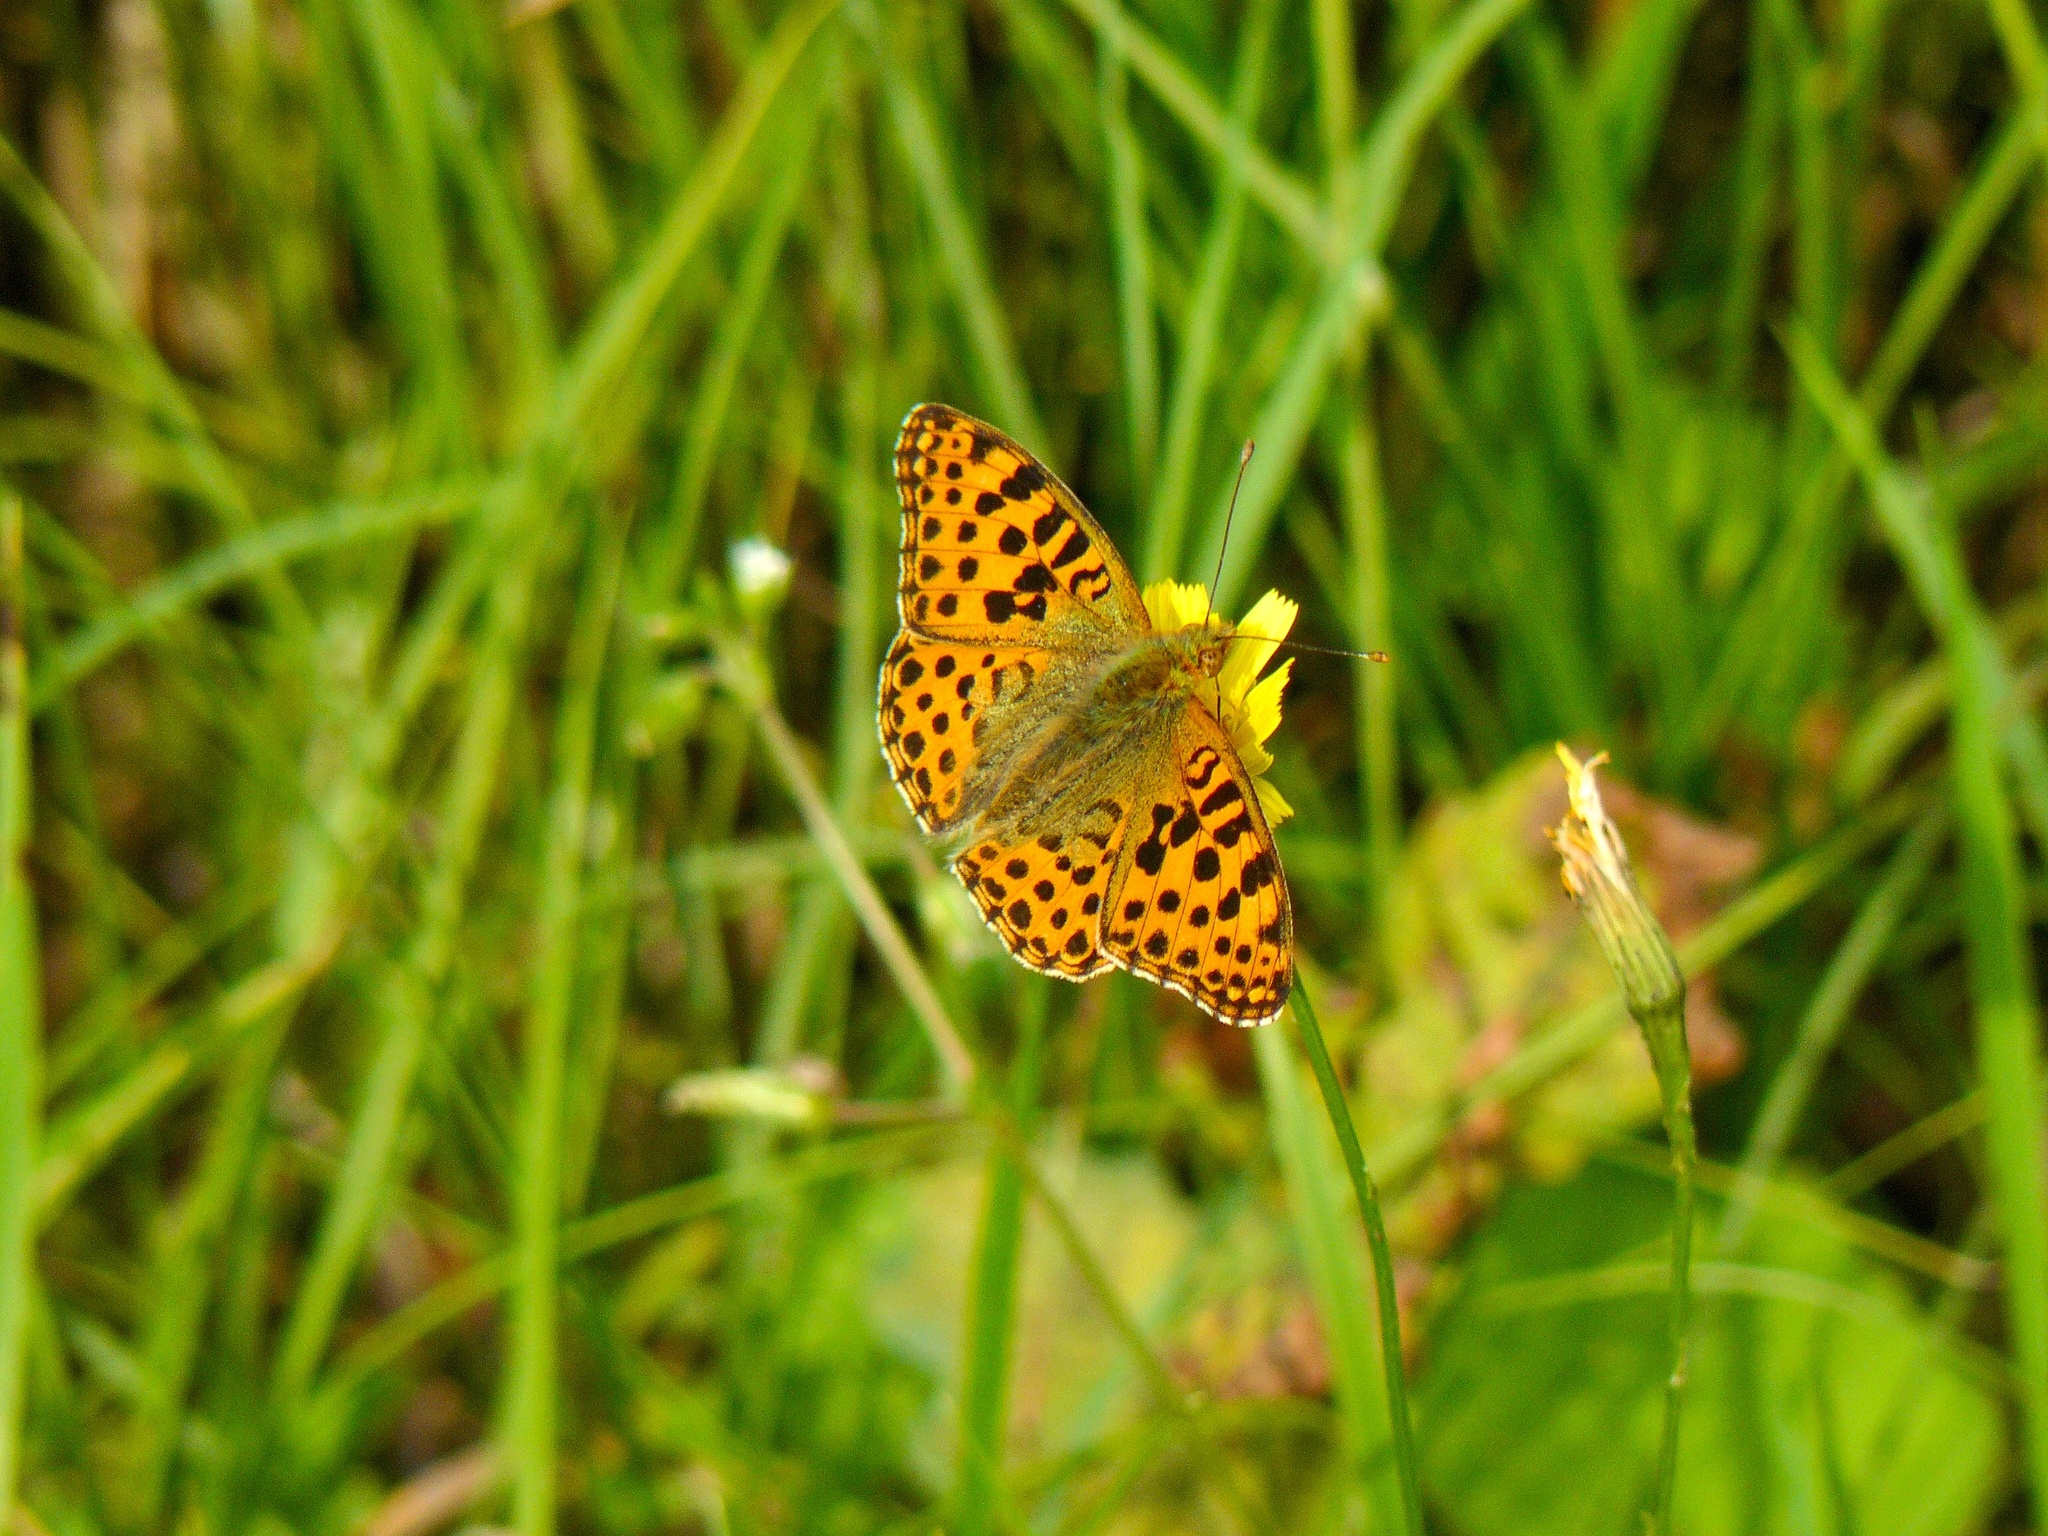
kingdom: Animalia
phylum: Arthropoda
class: Insecta
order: Lepidoptera
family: Nymphalidae
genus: Issoria
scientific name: Issoria lathonia
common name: Queen of spain fritillary
